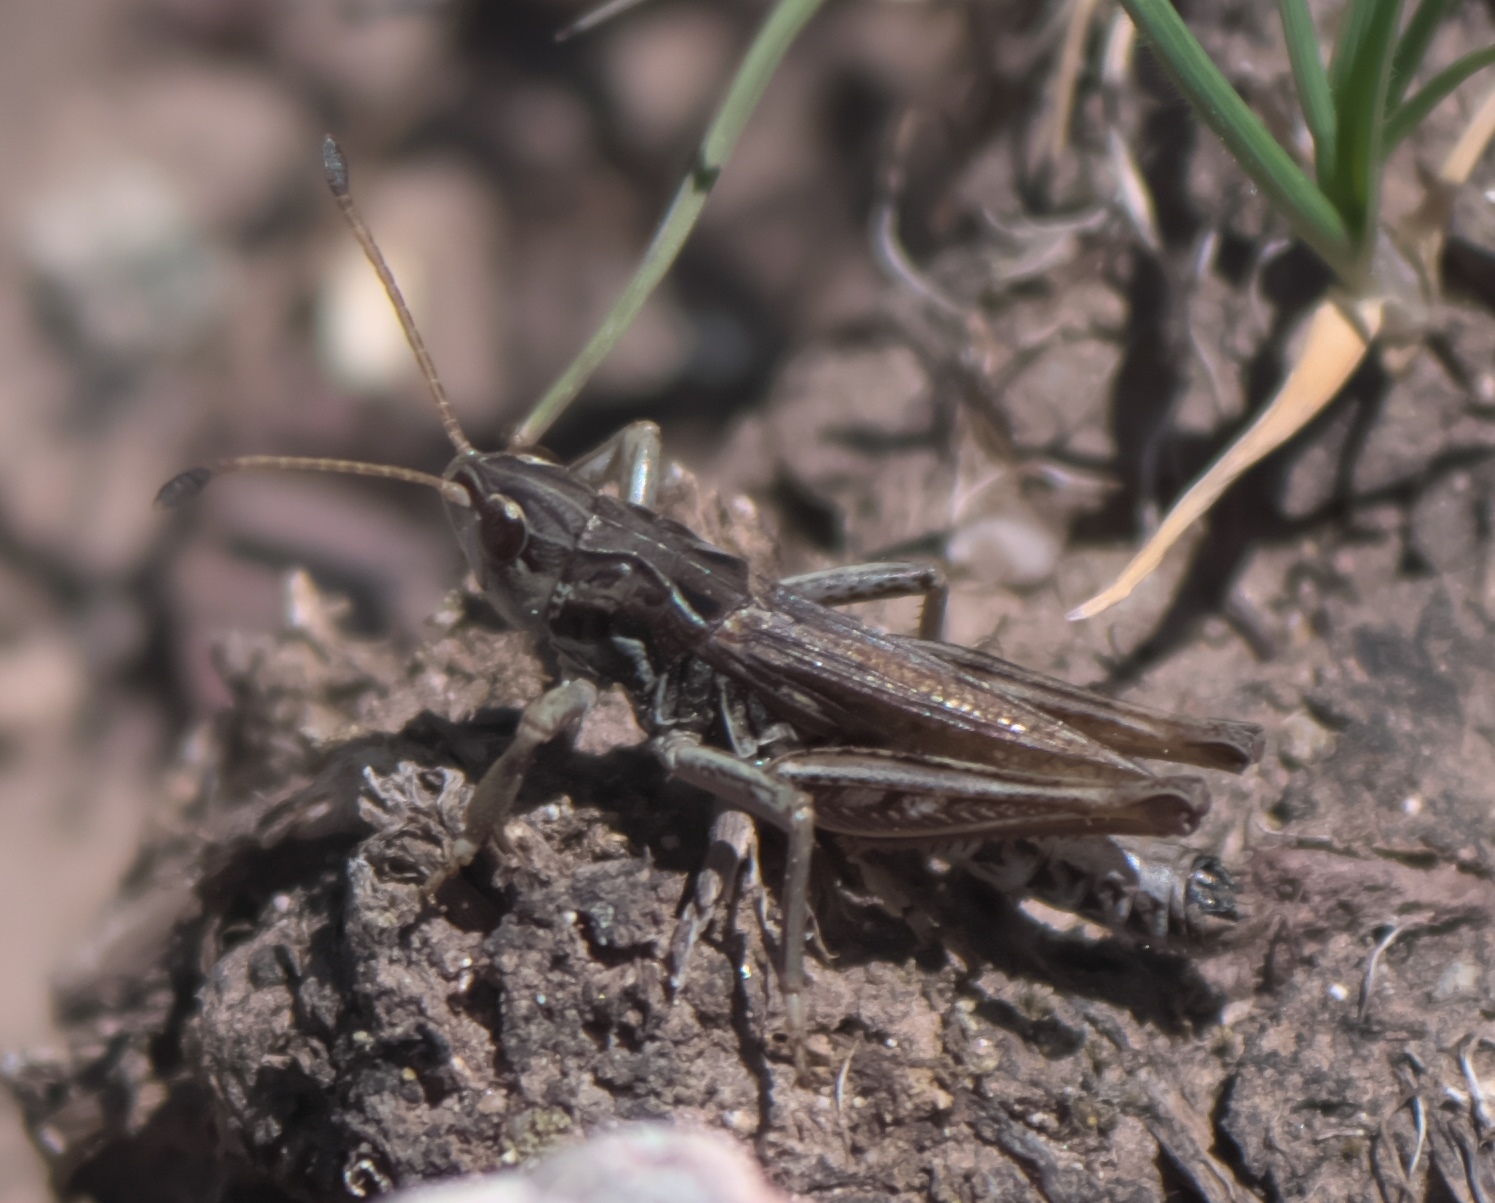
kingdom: Animalia
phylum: Arthropoda
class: Insecta
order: Orthoptera
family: Acrididae
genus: Aeropedellus
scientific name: Aeropedellus clavatus
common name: Clubhorned grasshopper
